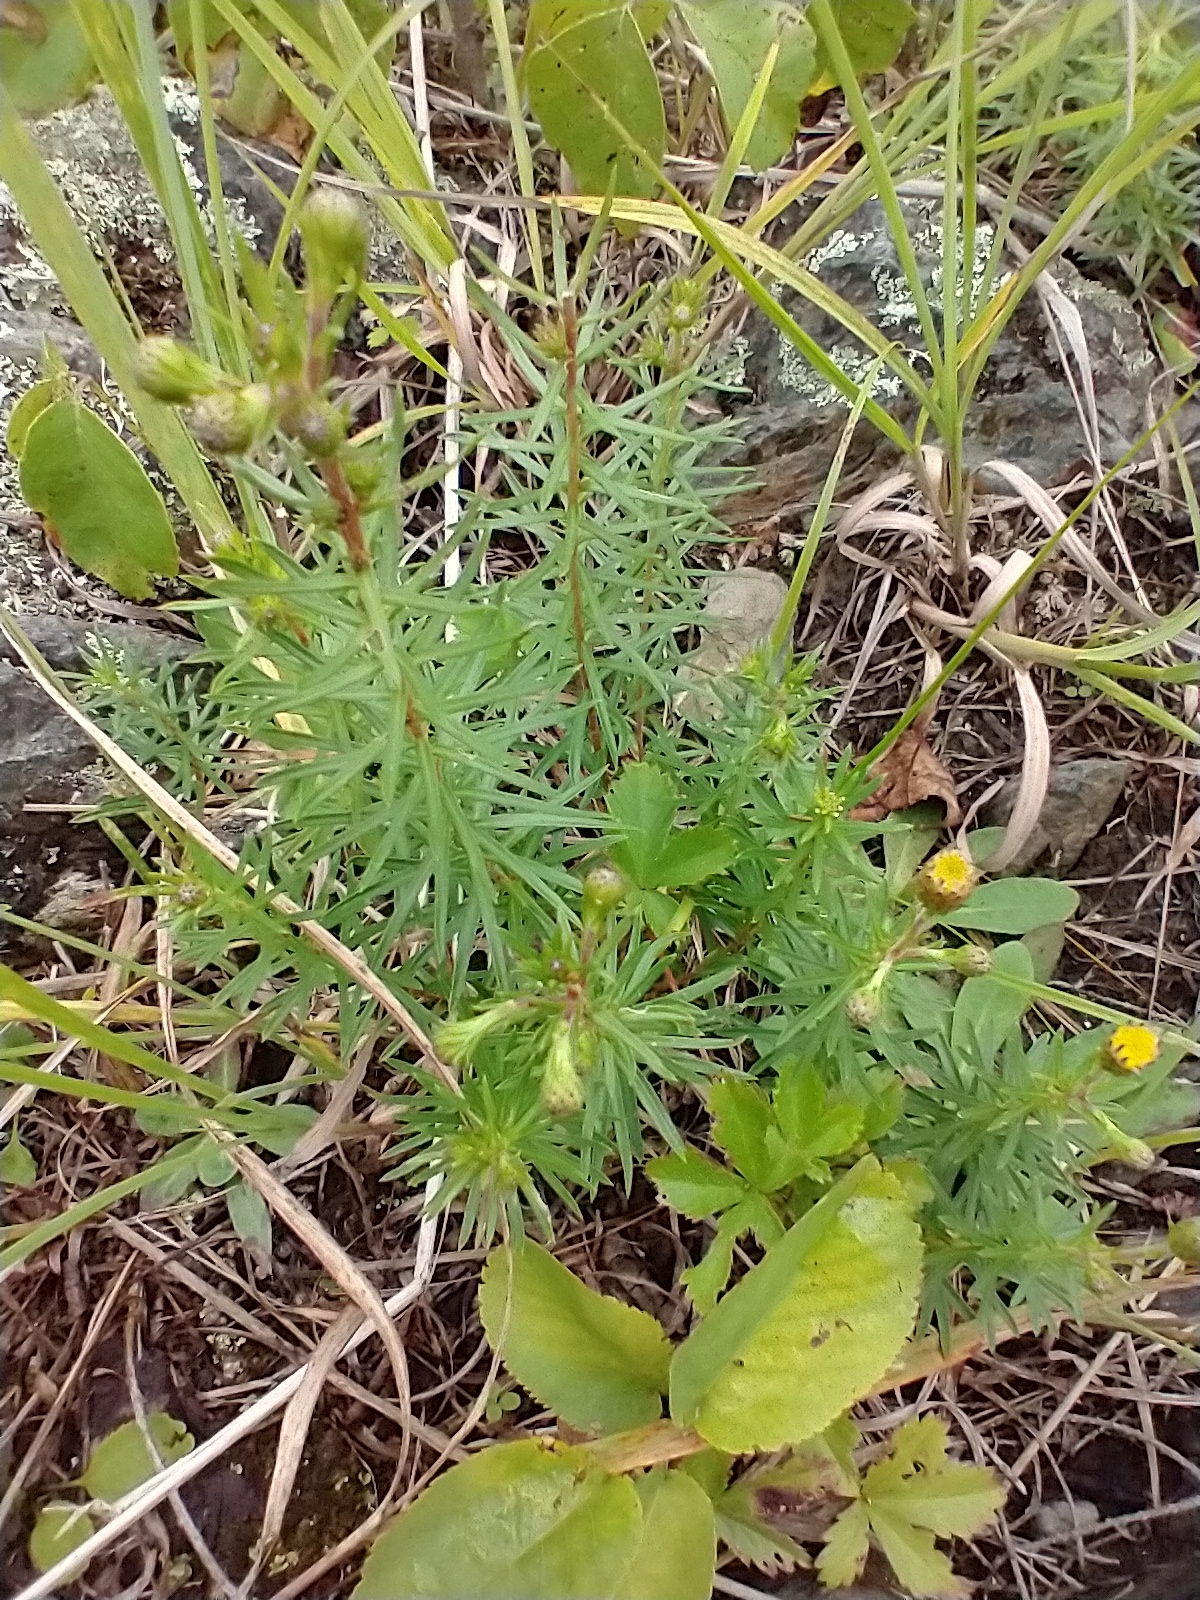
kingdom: Plantae
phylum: Tracheophyta
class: Magnoliopsida
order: Asterales
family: Asteraceae
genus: Ionactis
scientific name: Ionactis linariifolia
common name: Flax-leaf aster
